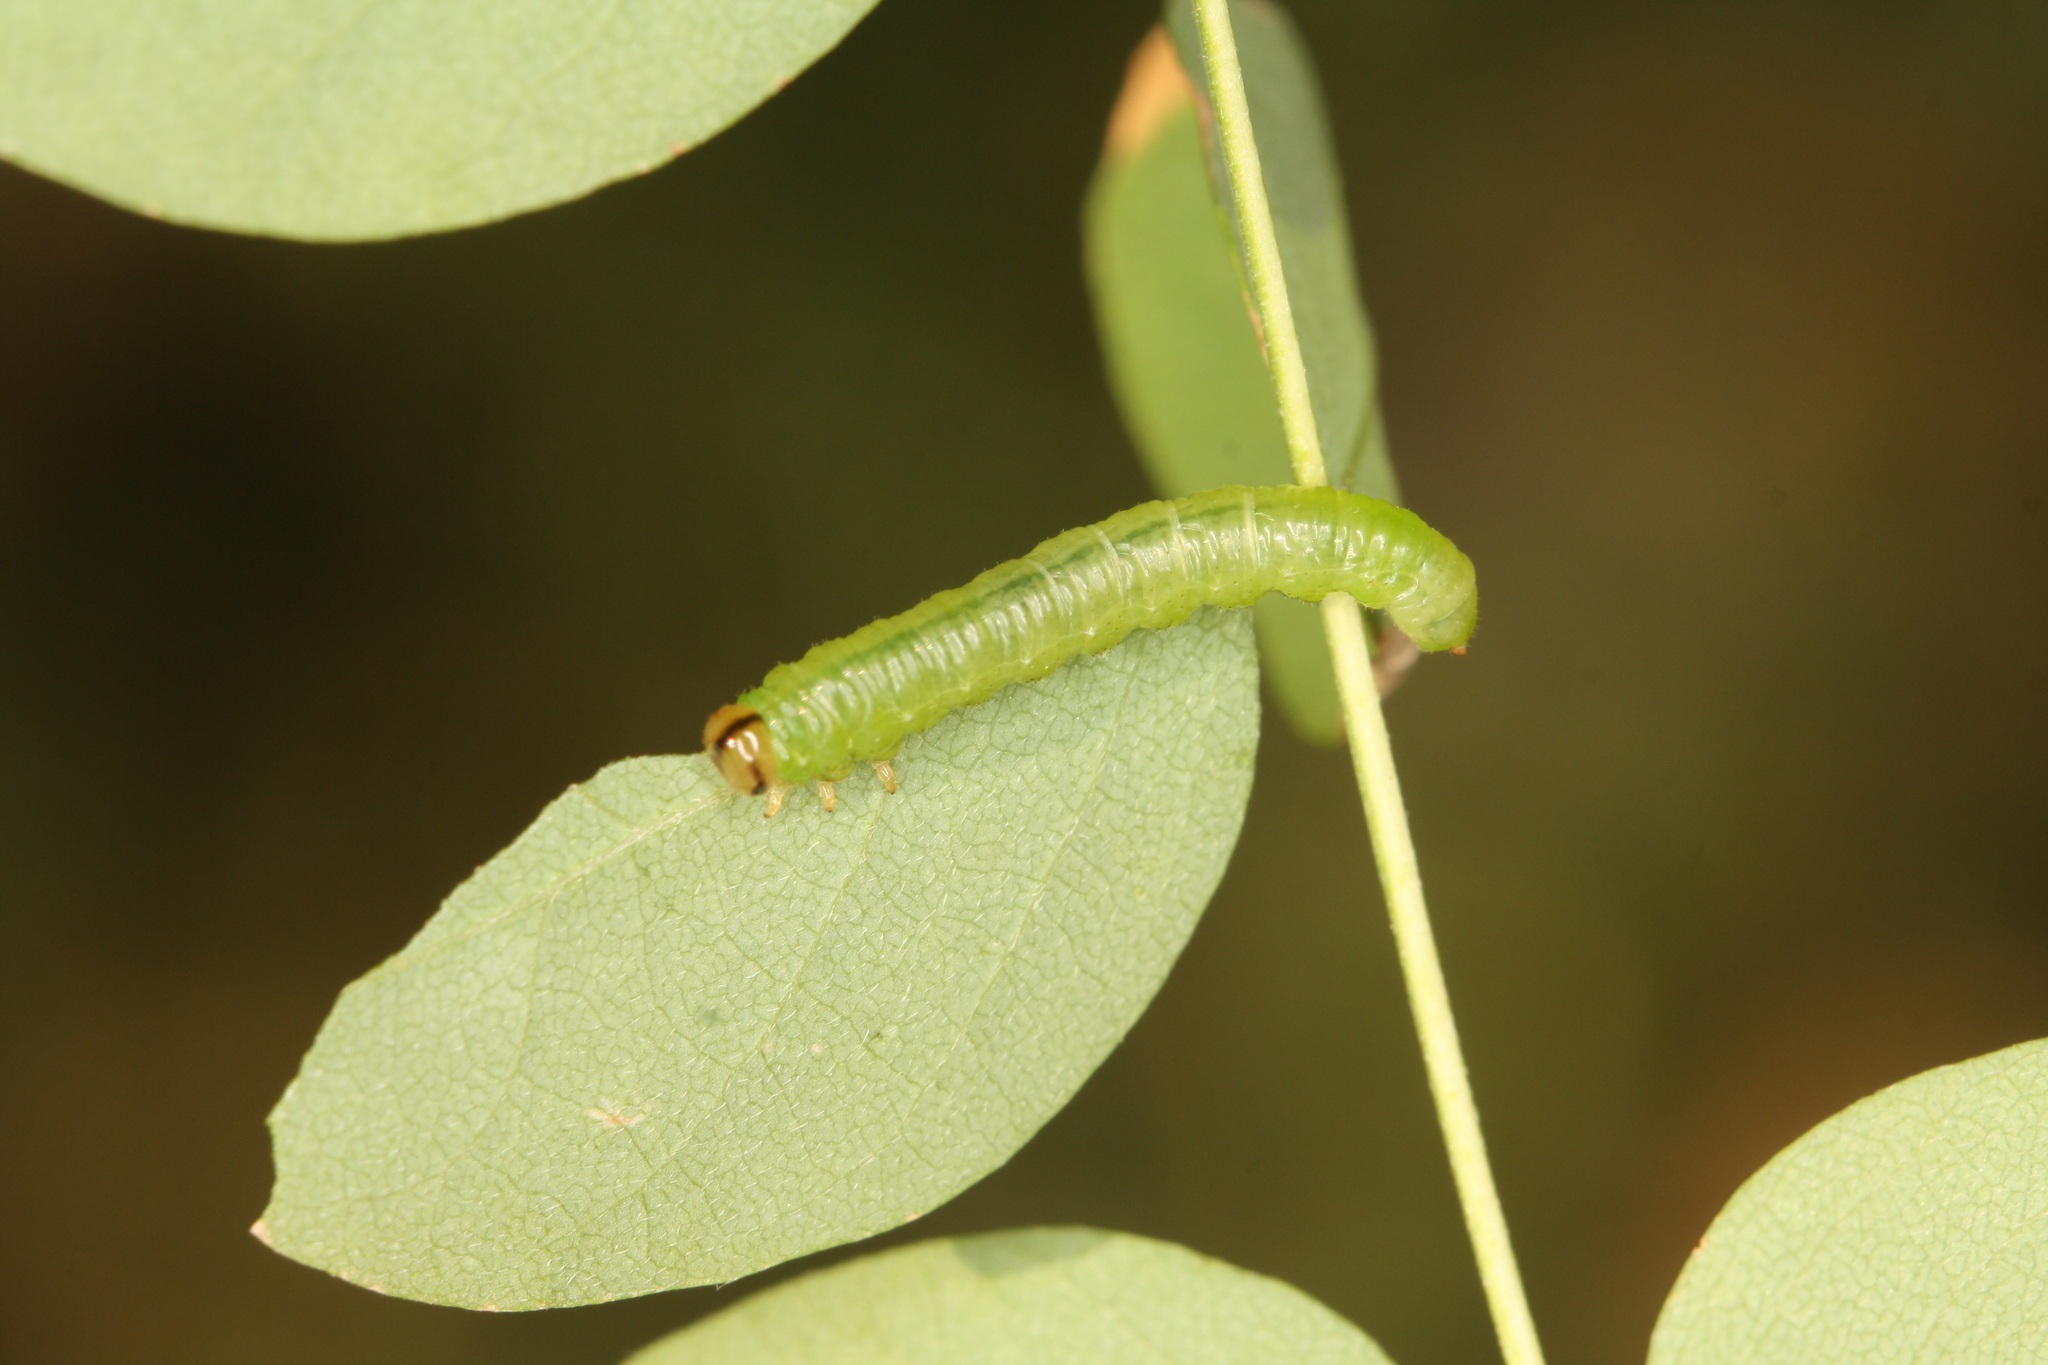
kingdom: Animalia
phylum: Arthropoda
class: Insecta
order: Hymenoptera
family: Tenthredinidae
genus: Euura
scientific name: Euura tibialis
